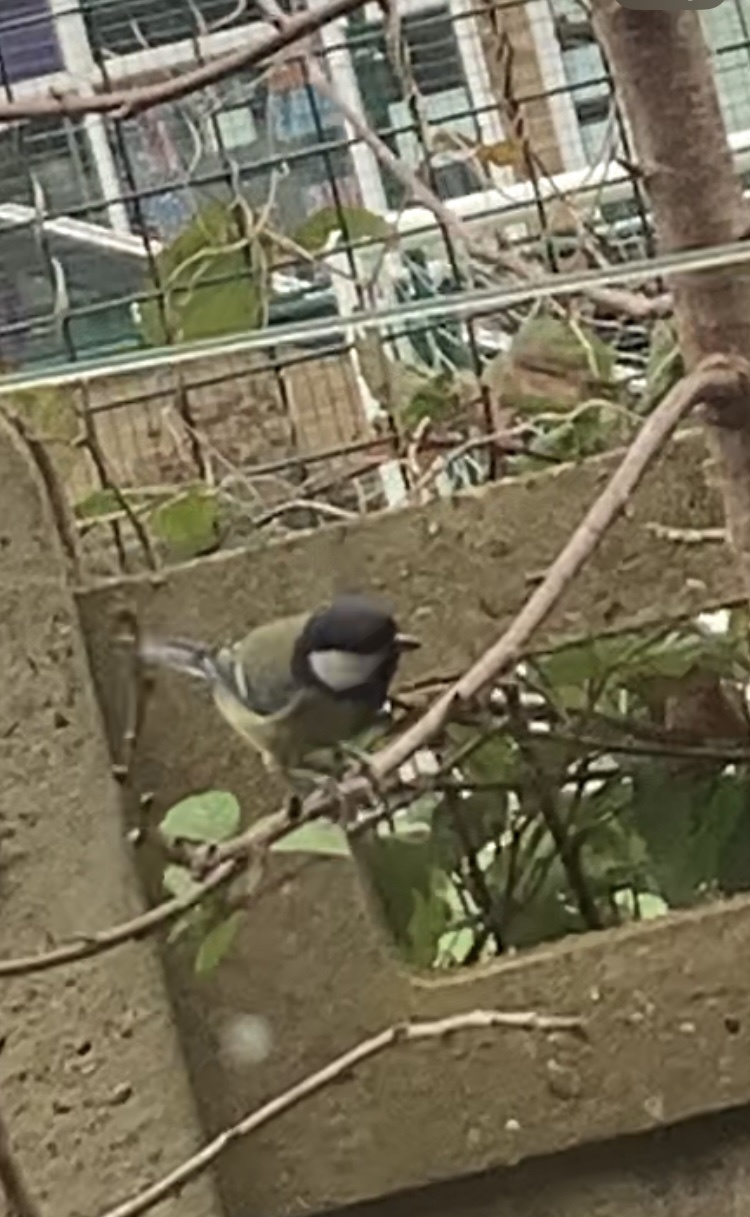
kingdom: Animalia
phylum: Chordata
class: Aves
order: Passeriformes
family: Paridae
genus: Parus
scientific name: Parus major
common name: Great tit
